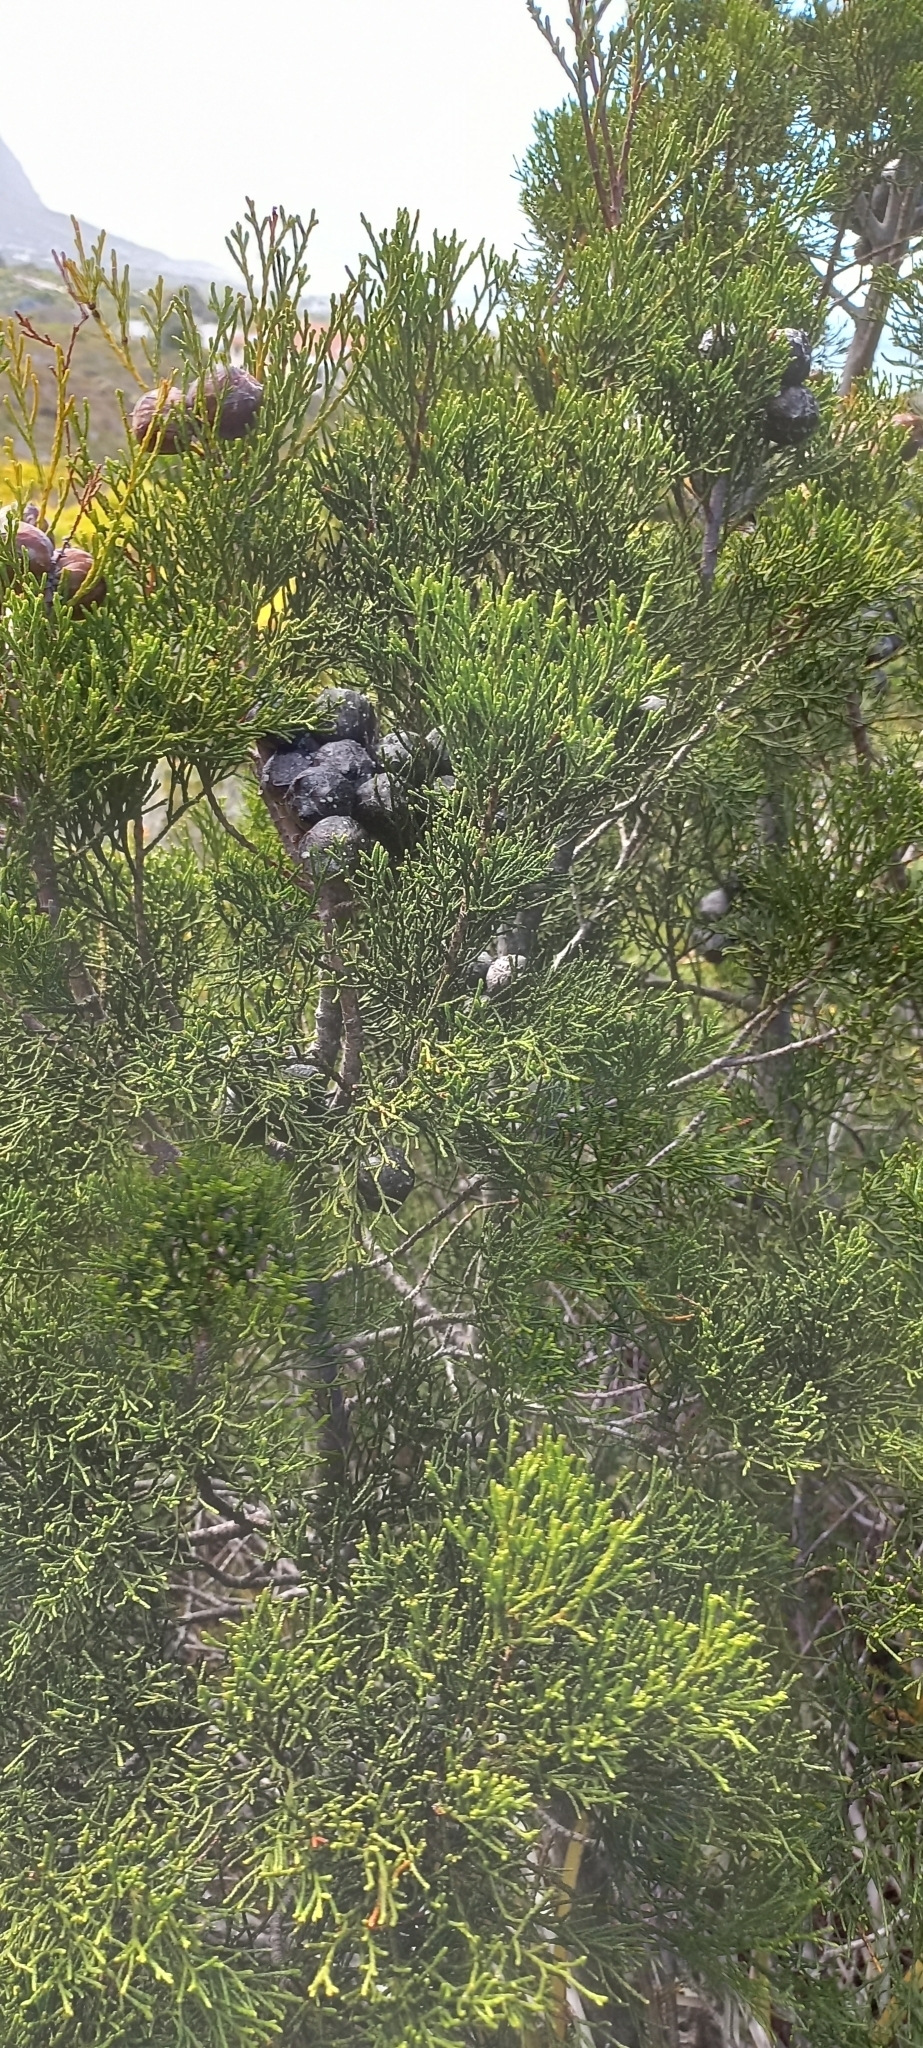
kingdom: Plantae
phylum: Tracheophyta
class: Pinopsida
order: Pinales
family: Cupressaceae
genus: Widdringtonia
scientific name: Widdringtonia nodiflora
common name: Cape cypress
